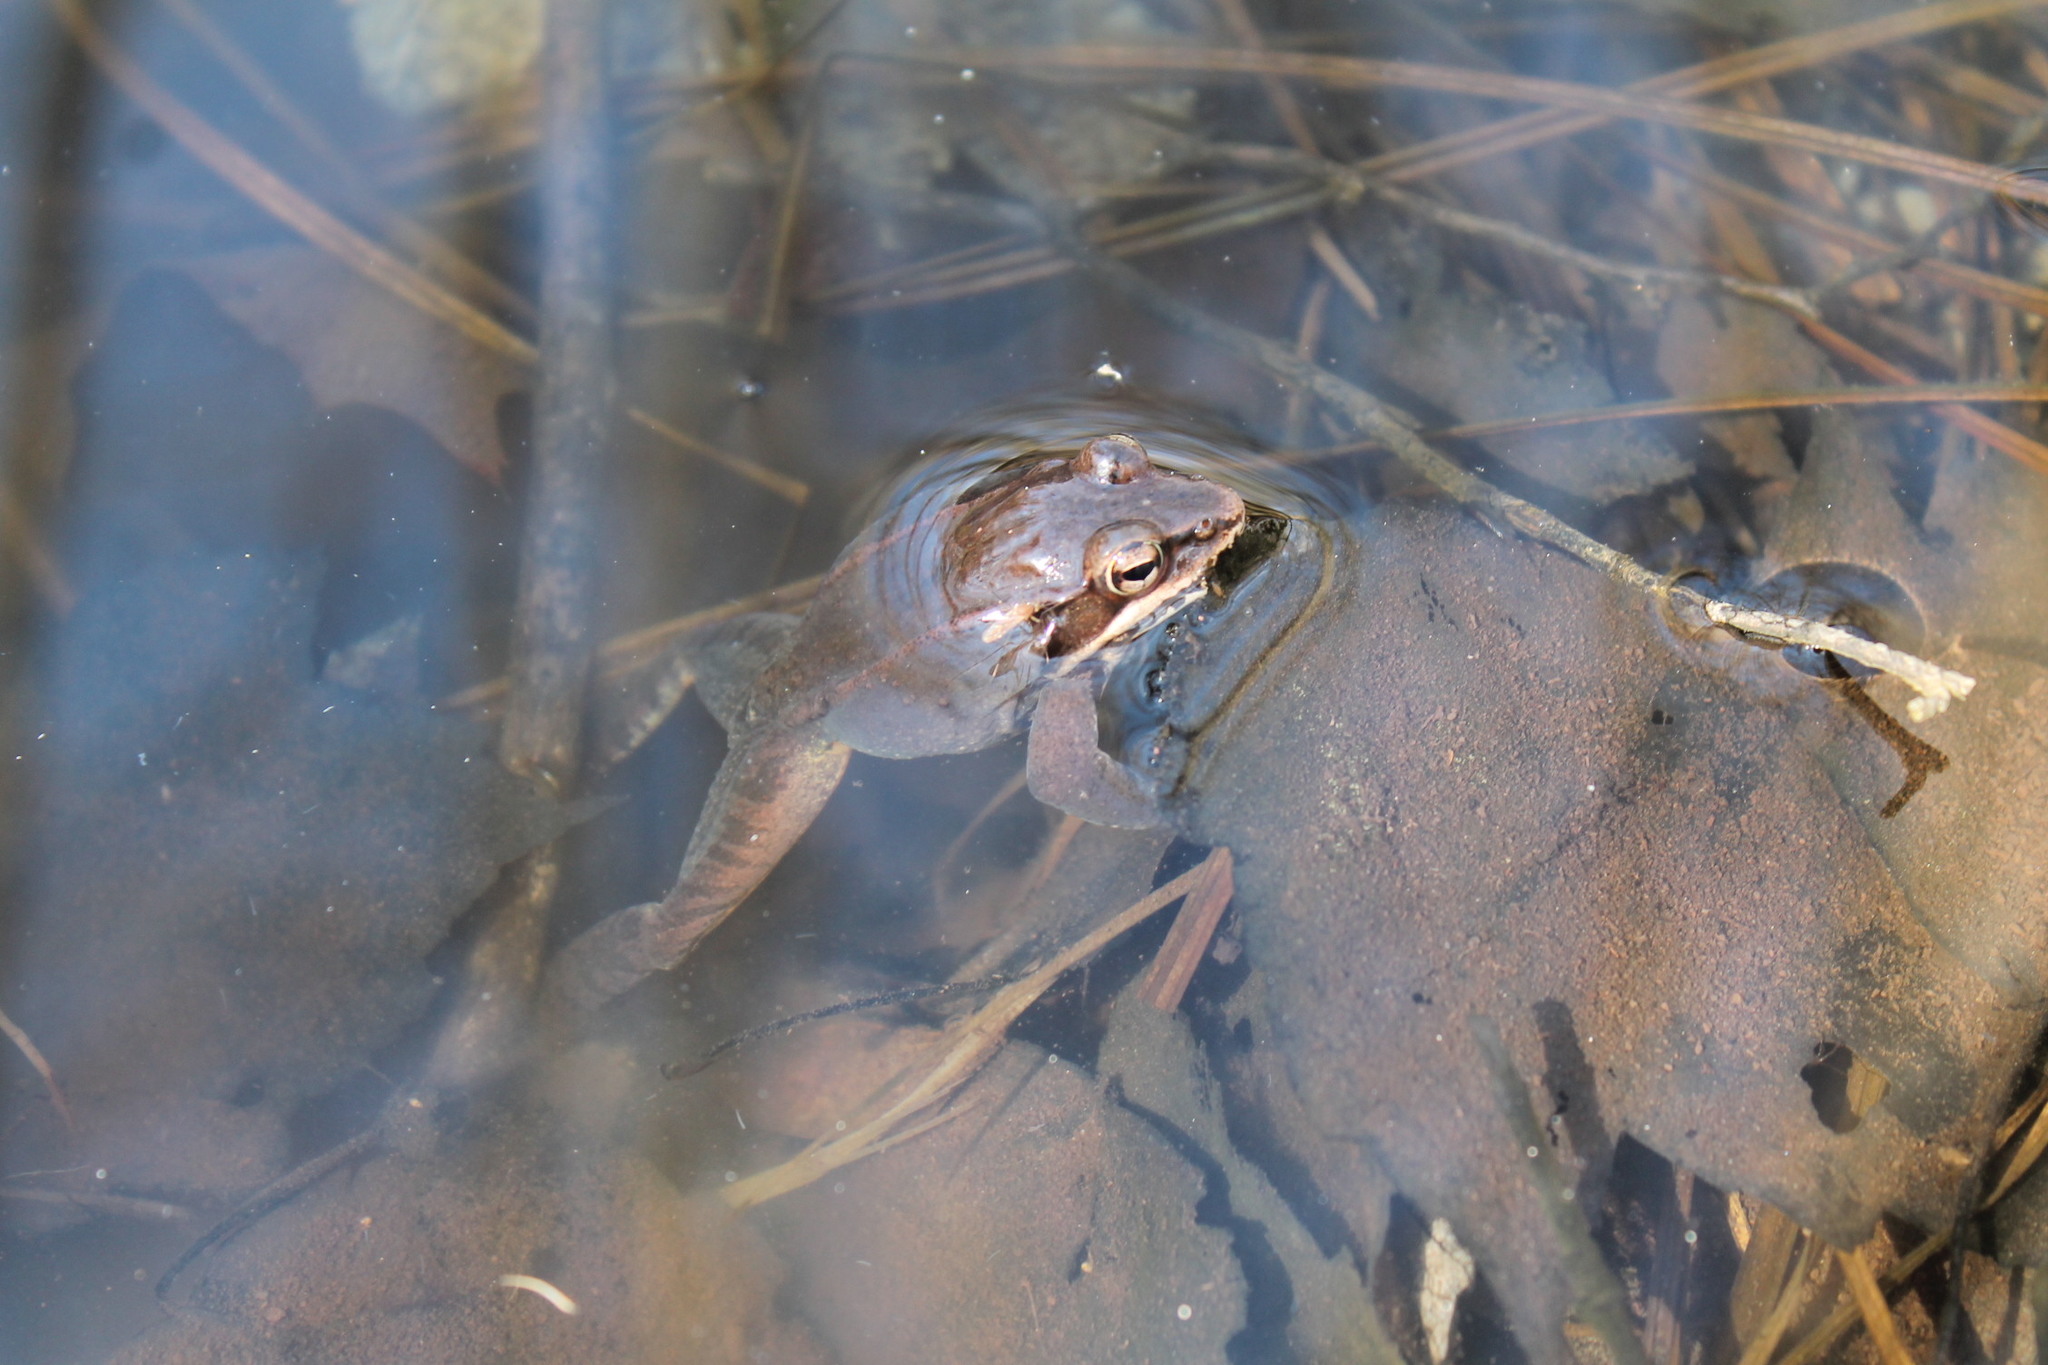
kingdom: Animalia
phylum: Chordata
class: Amphibia
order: Anura
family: Ranidae
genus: Lithobates
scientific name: Lithobates sylvaticus
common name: Wood frog
